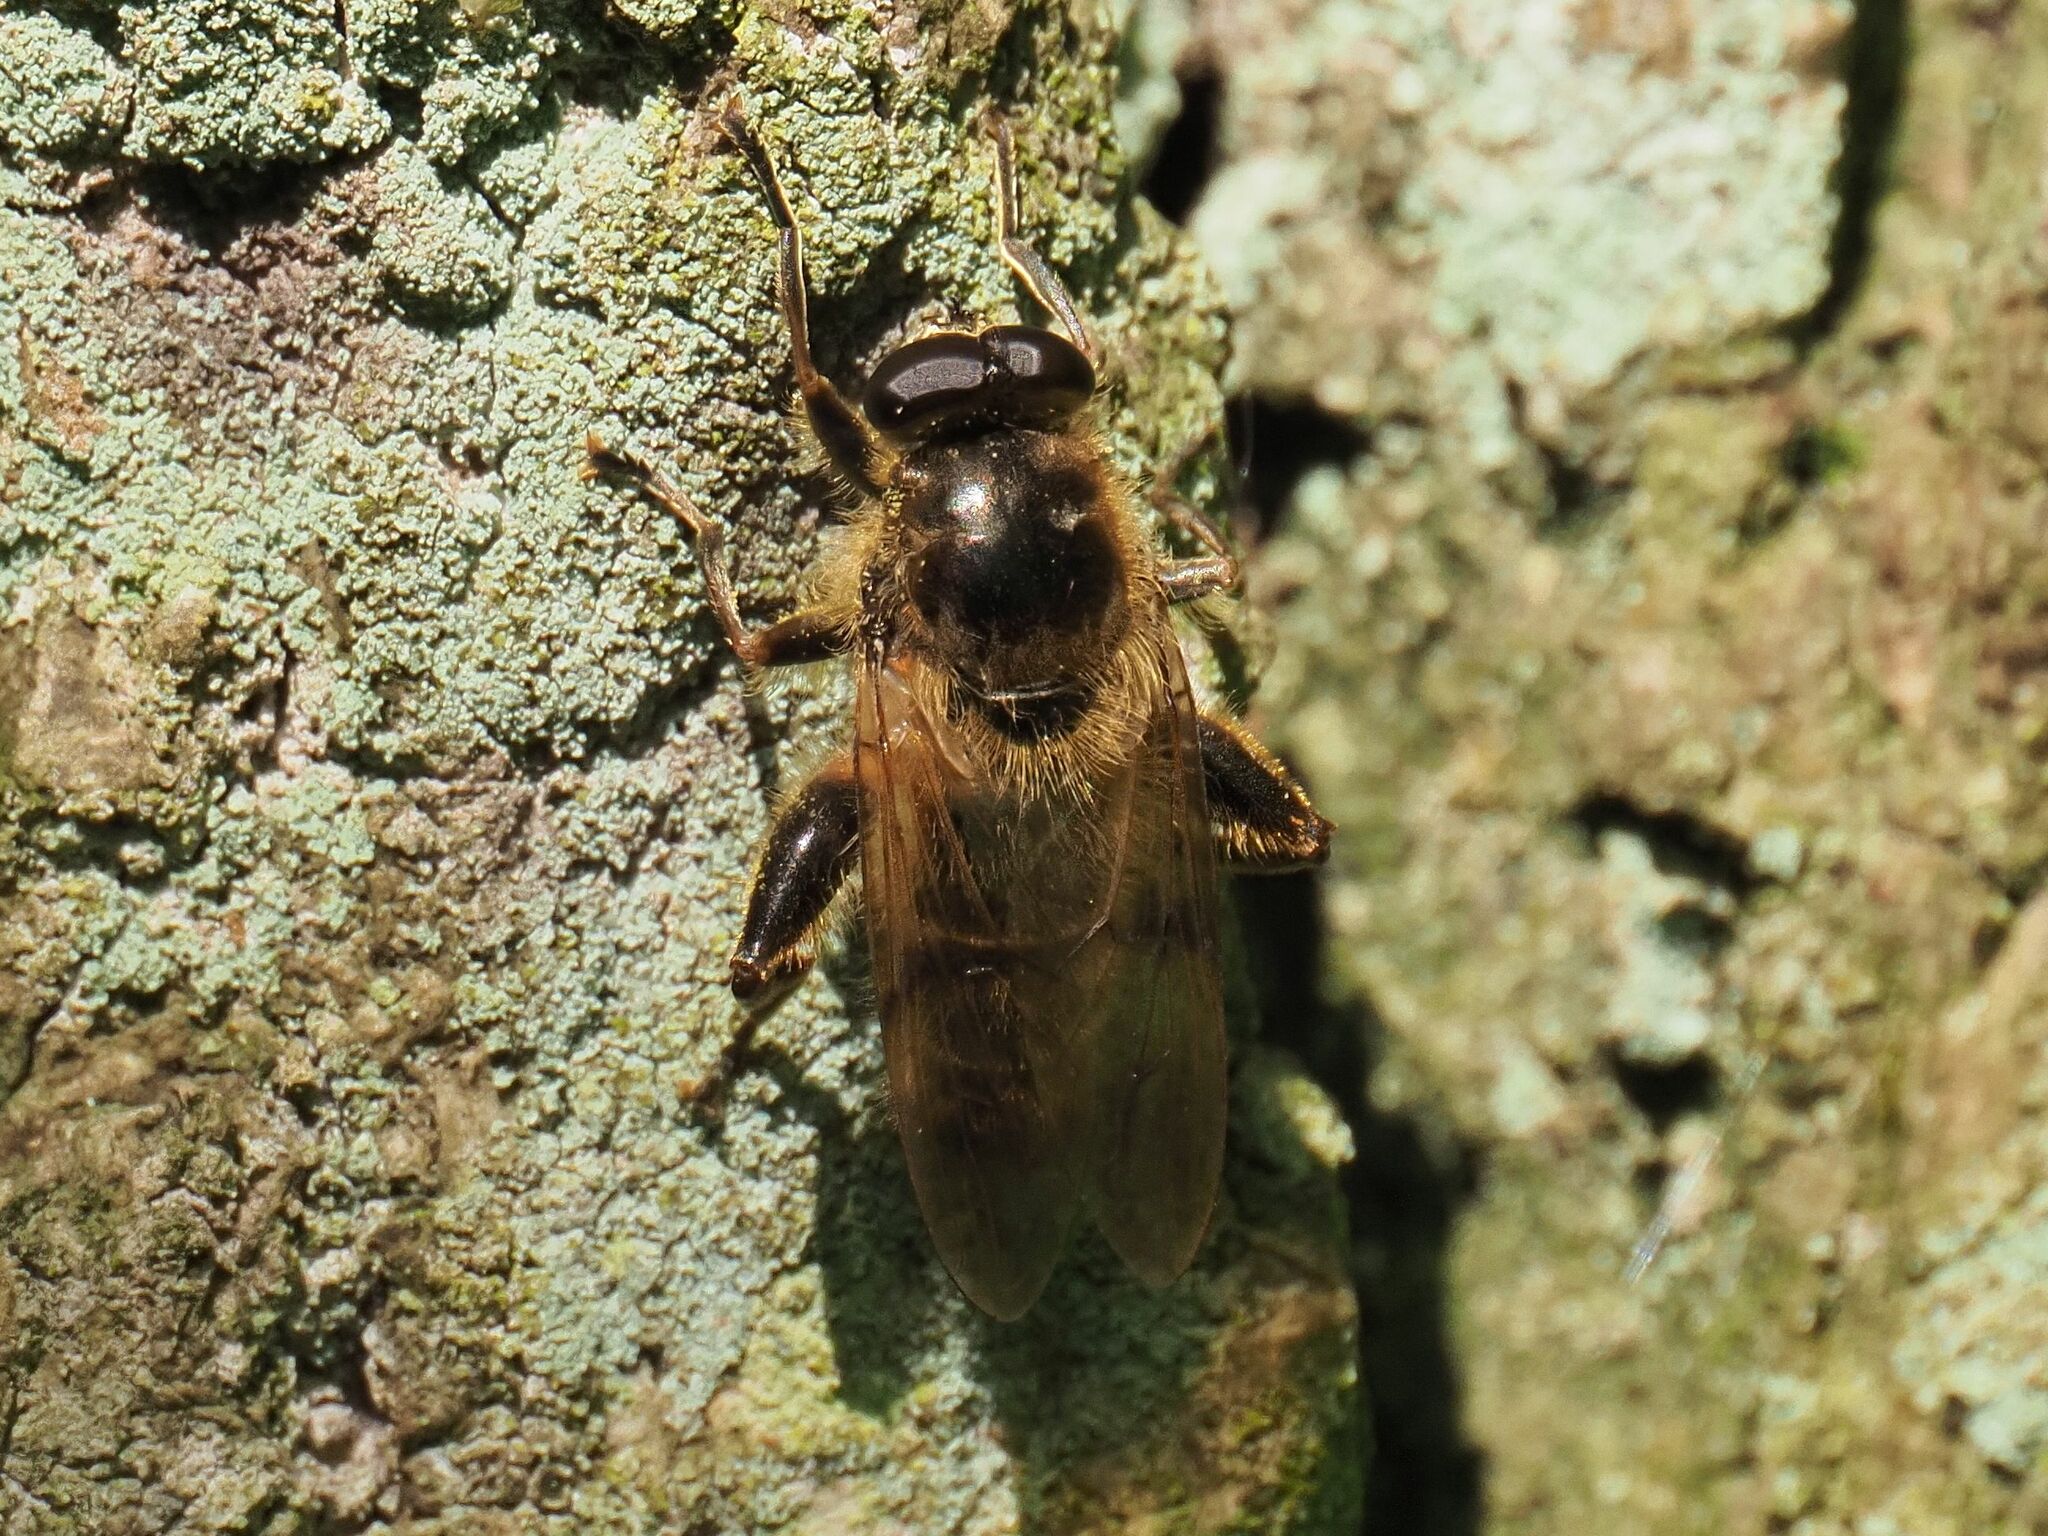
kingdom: Animalia
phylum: Arthropoda
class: Insecta
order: Diptera
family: Syrphidae
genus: Brachypalpus
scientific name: Brachypalpus valgus
